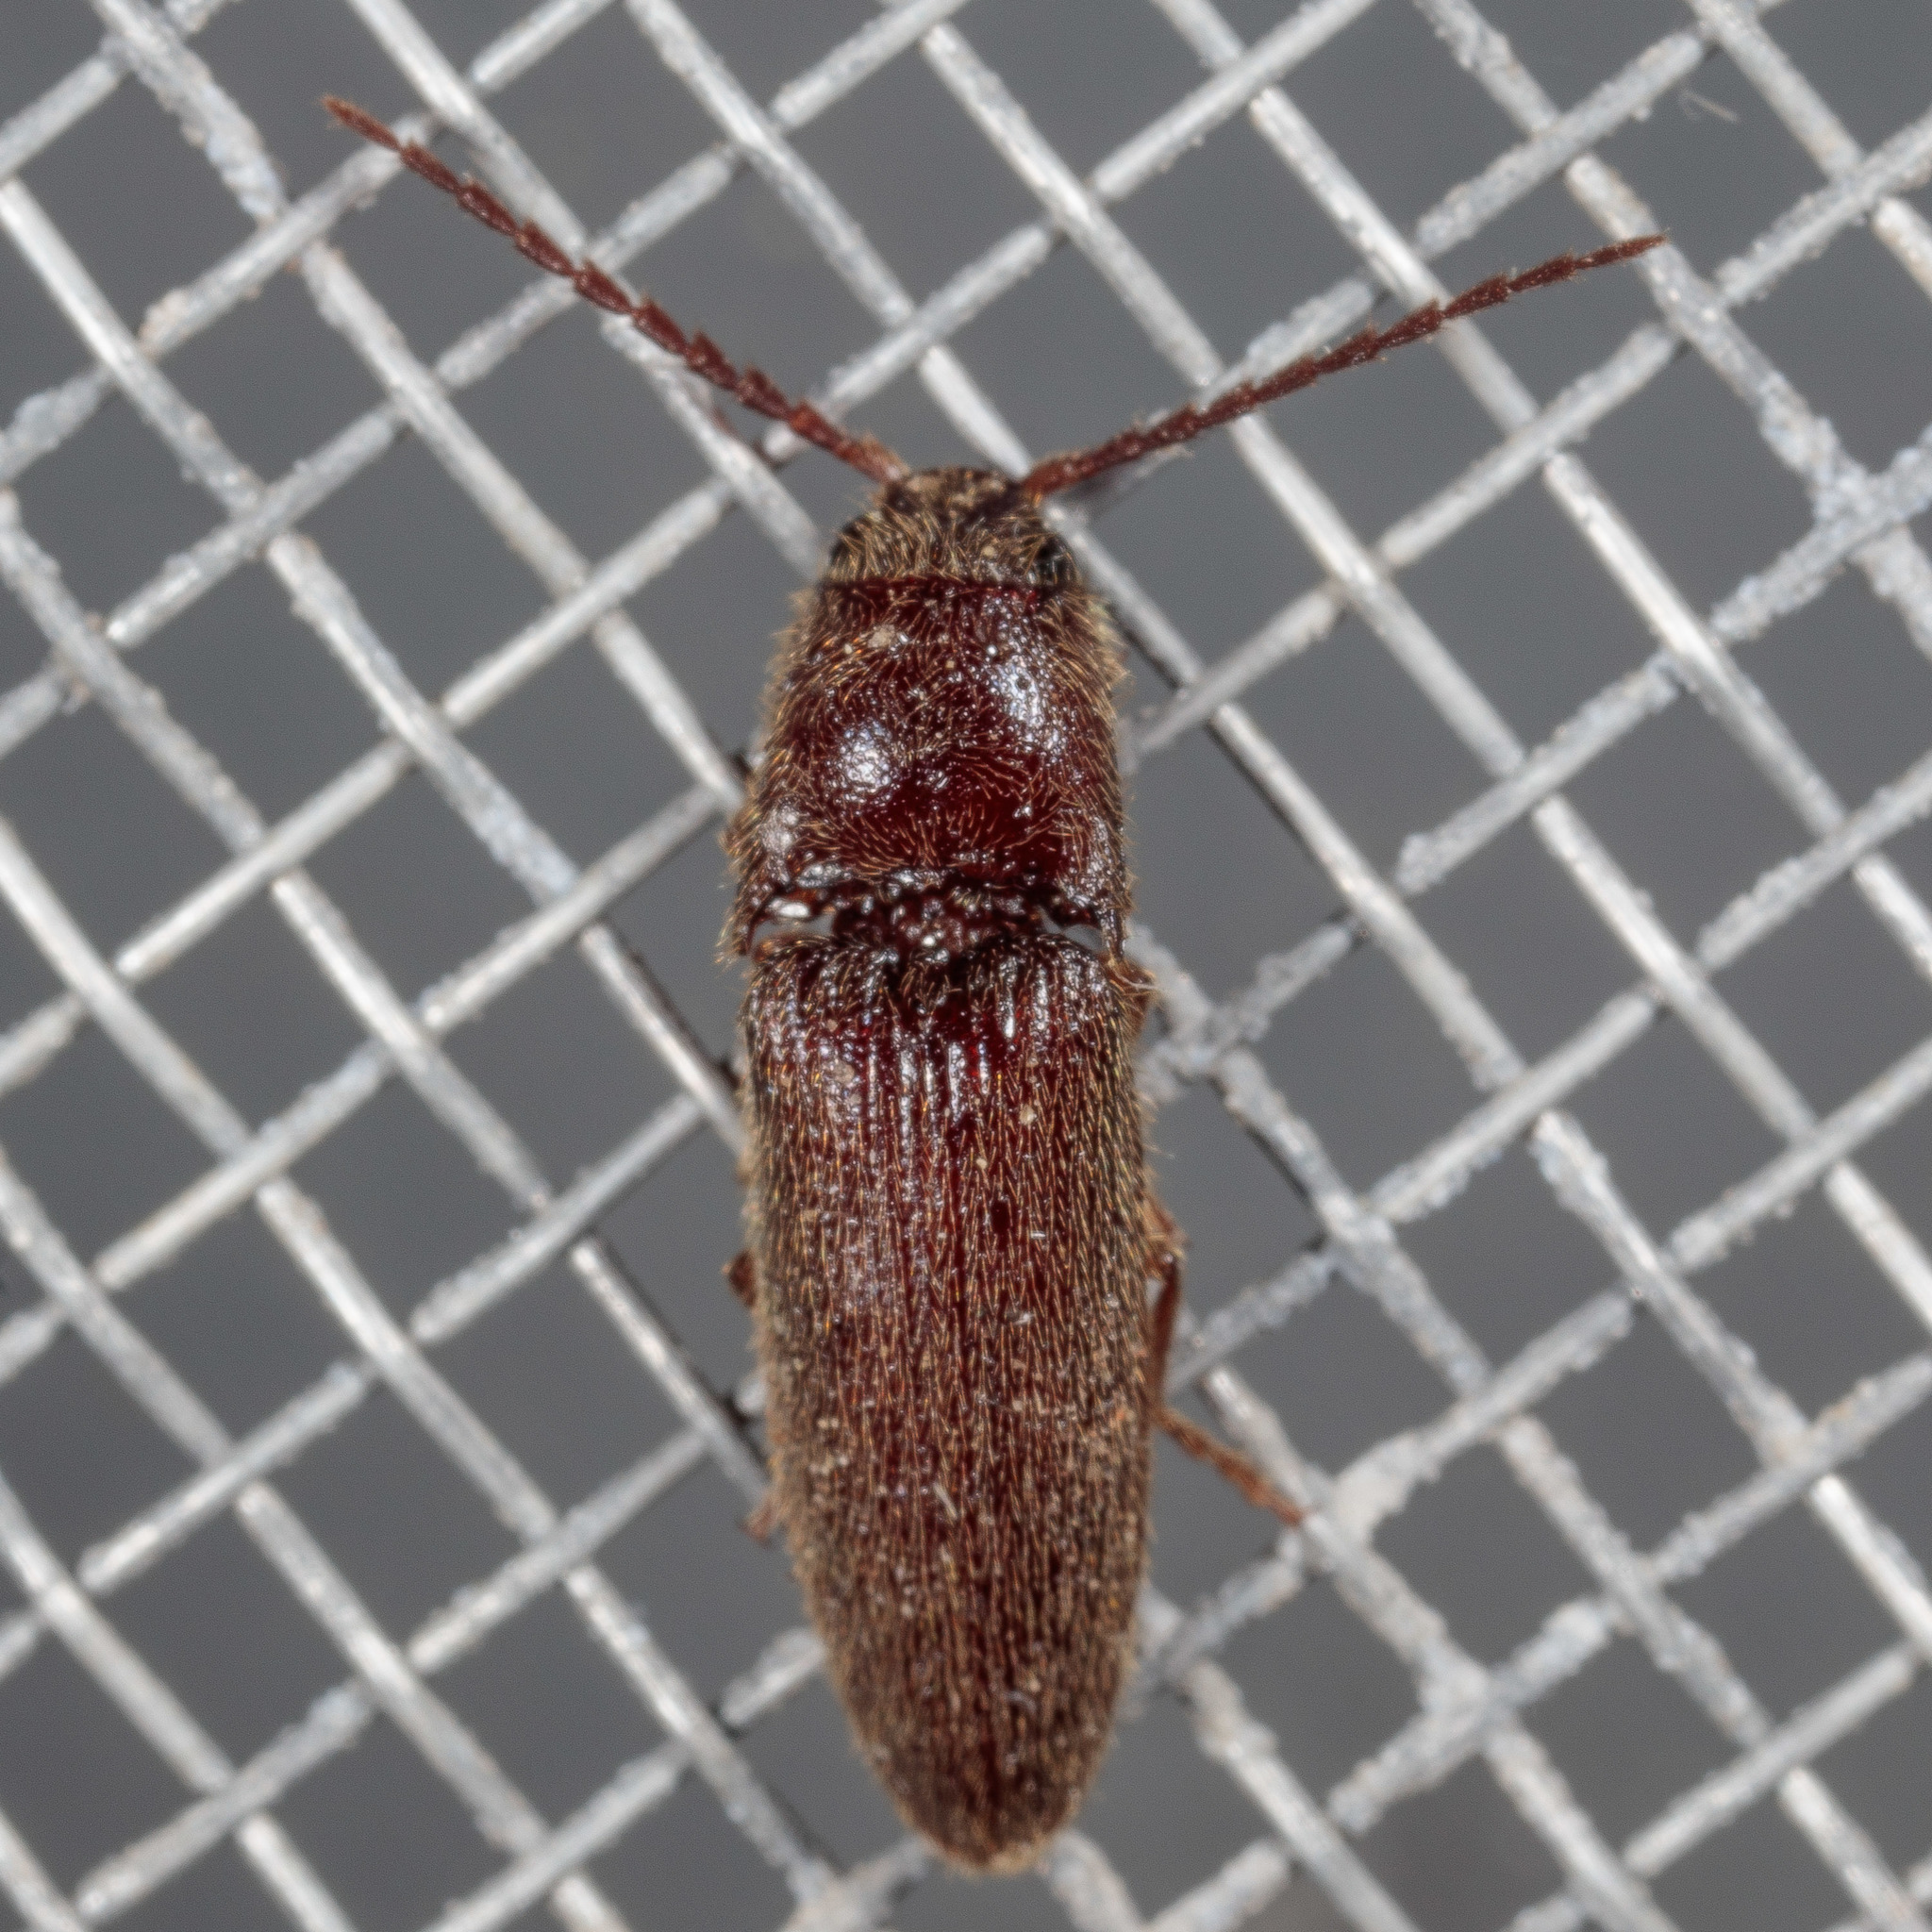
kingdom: Animalia
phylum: Arthropoda
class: Insecta
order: Coleoptera
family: Elateridae
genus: Dipropus
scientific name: Dipropus
